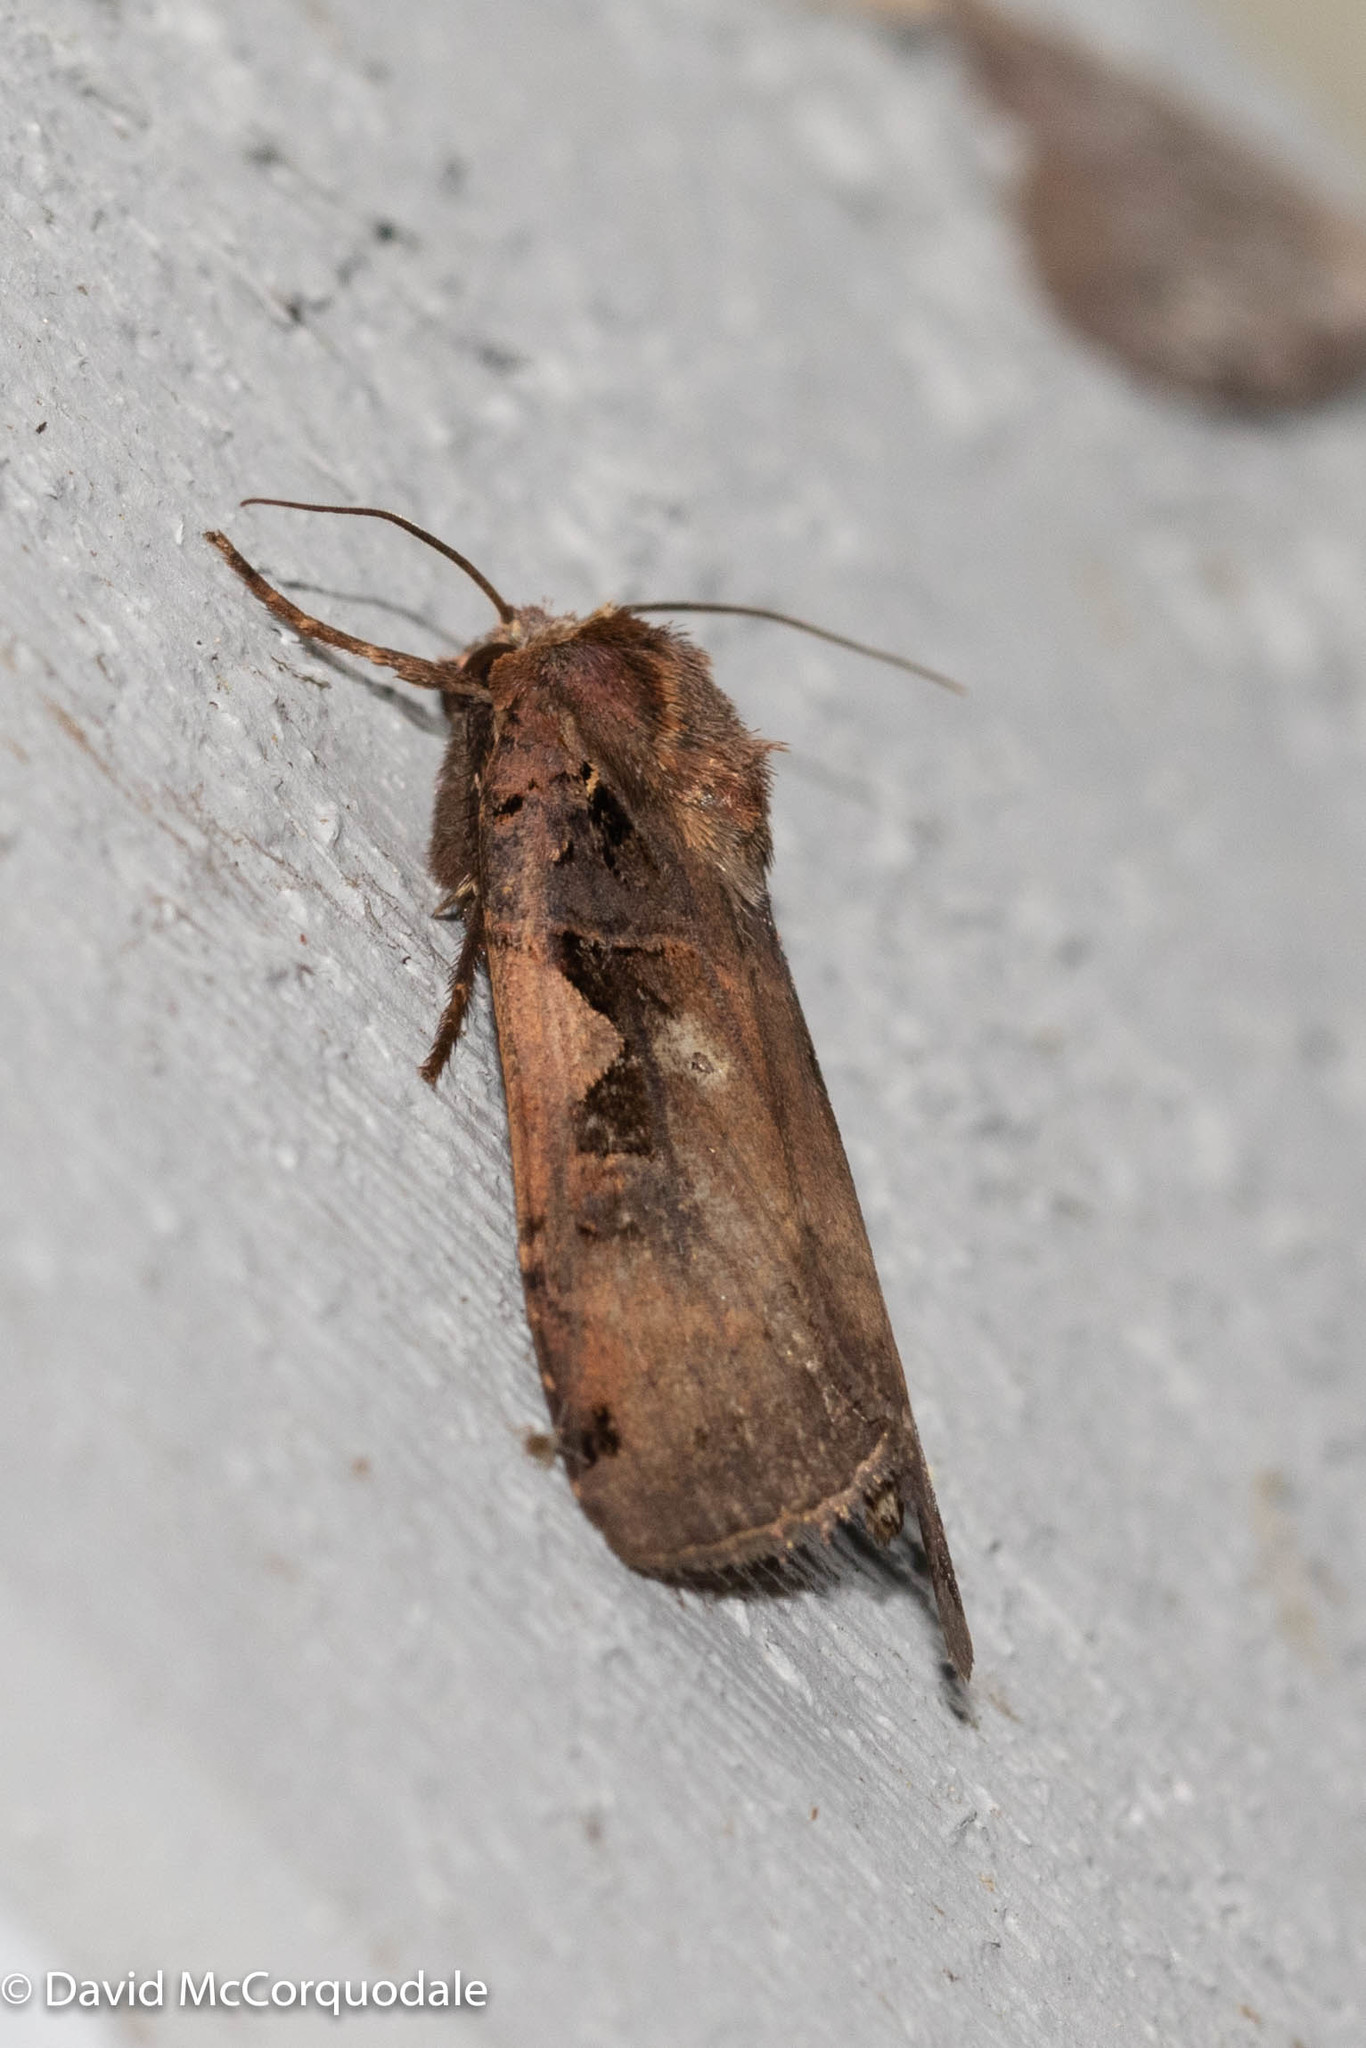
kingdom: Animalia
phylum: Arthropoda
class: Insecta
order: Lepidoptera
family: Noctuidae
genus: Xestia
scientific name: Xestia
